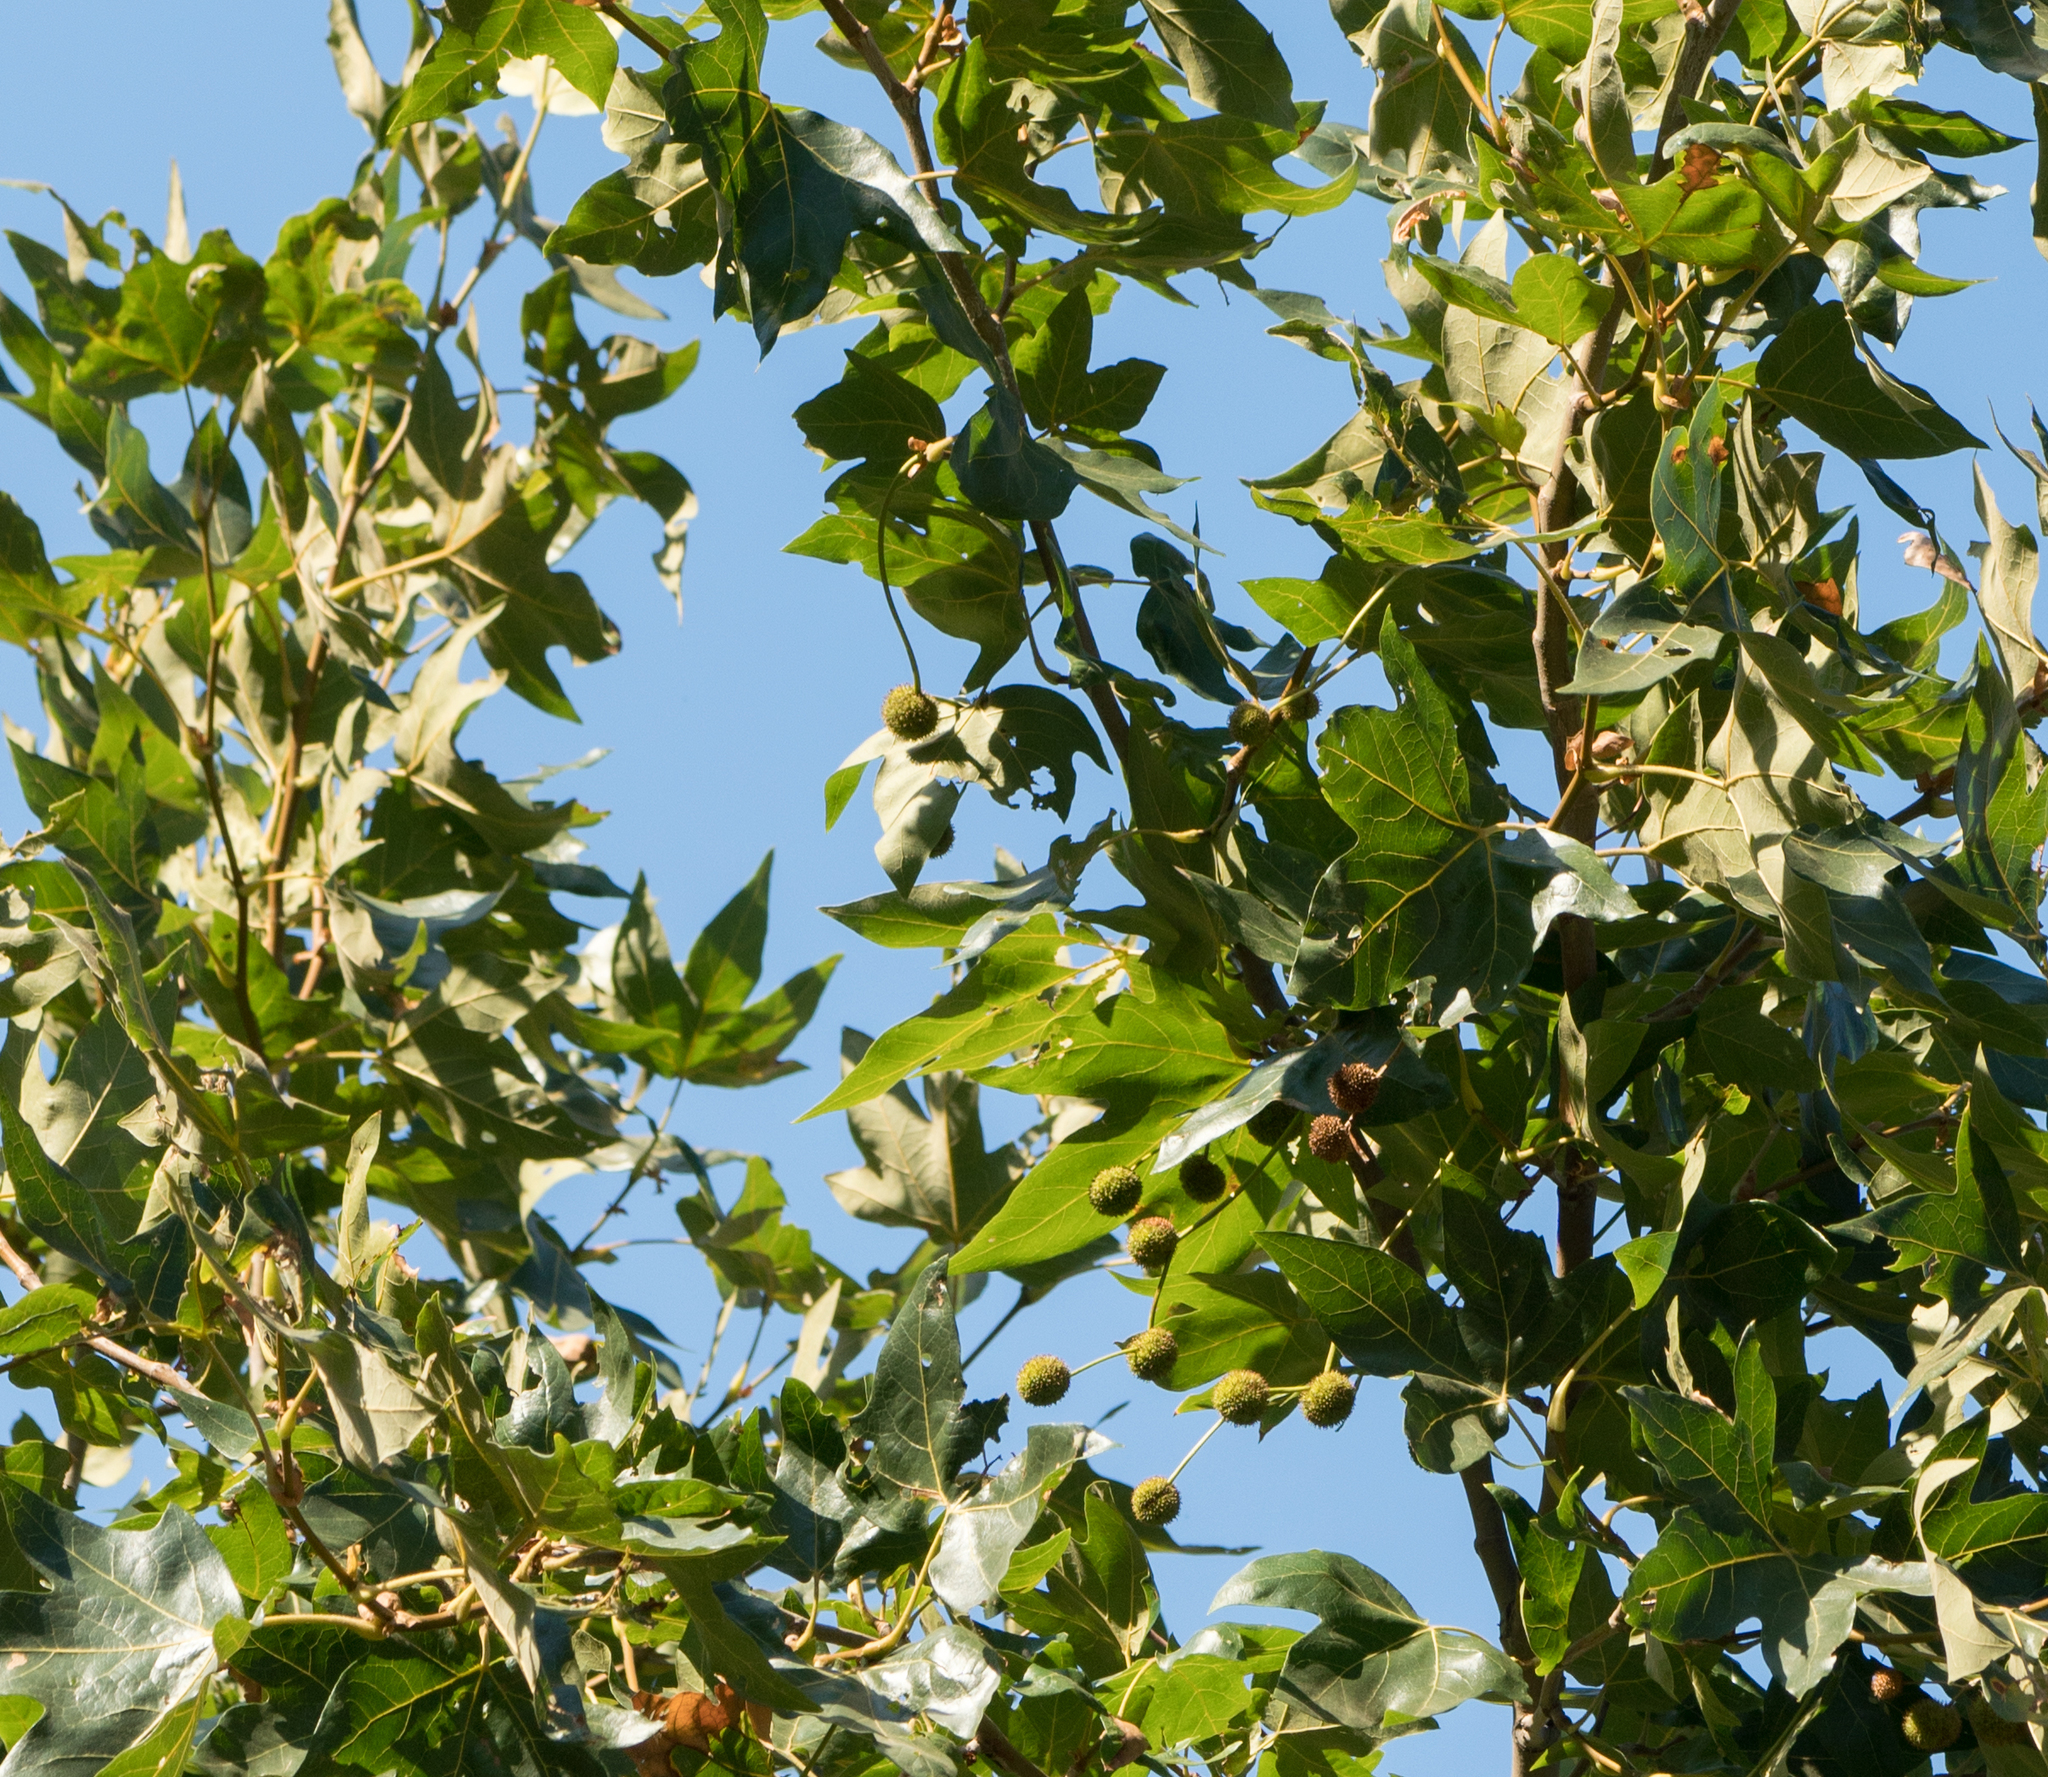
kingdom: Plantae
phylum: Tracheophyta
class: Magnoliopsida
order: Proteales
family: Platanaceae
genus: Platanus
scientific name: Platanus racemosa
